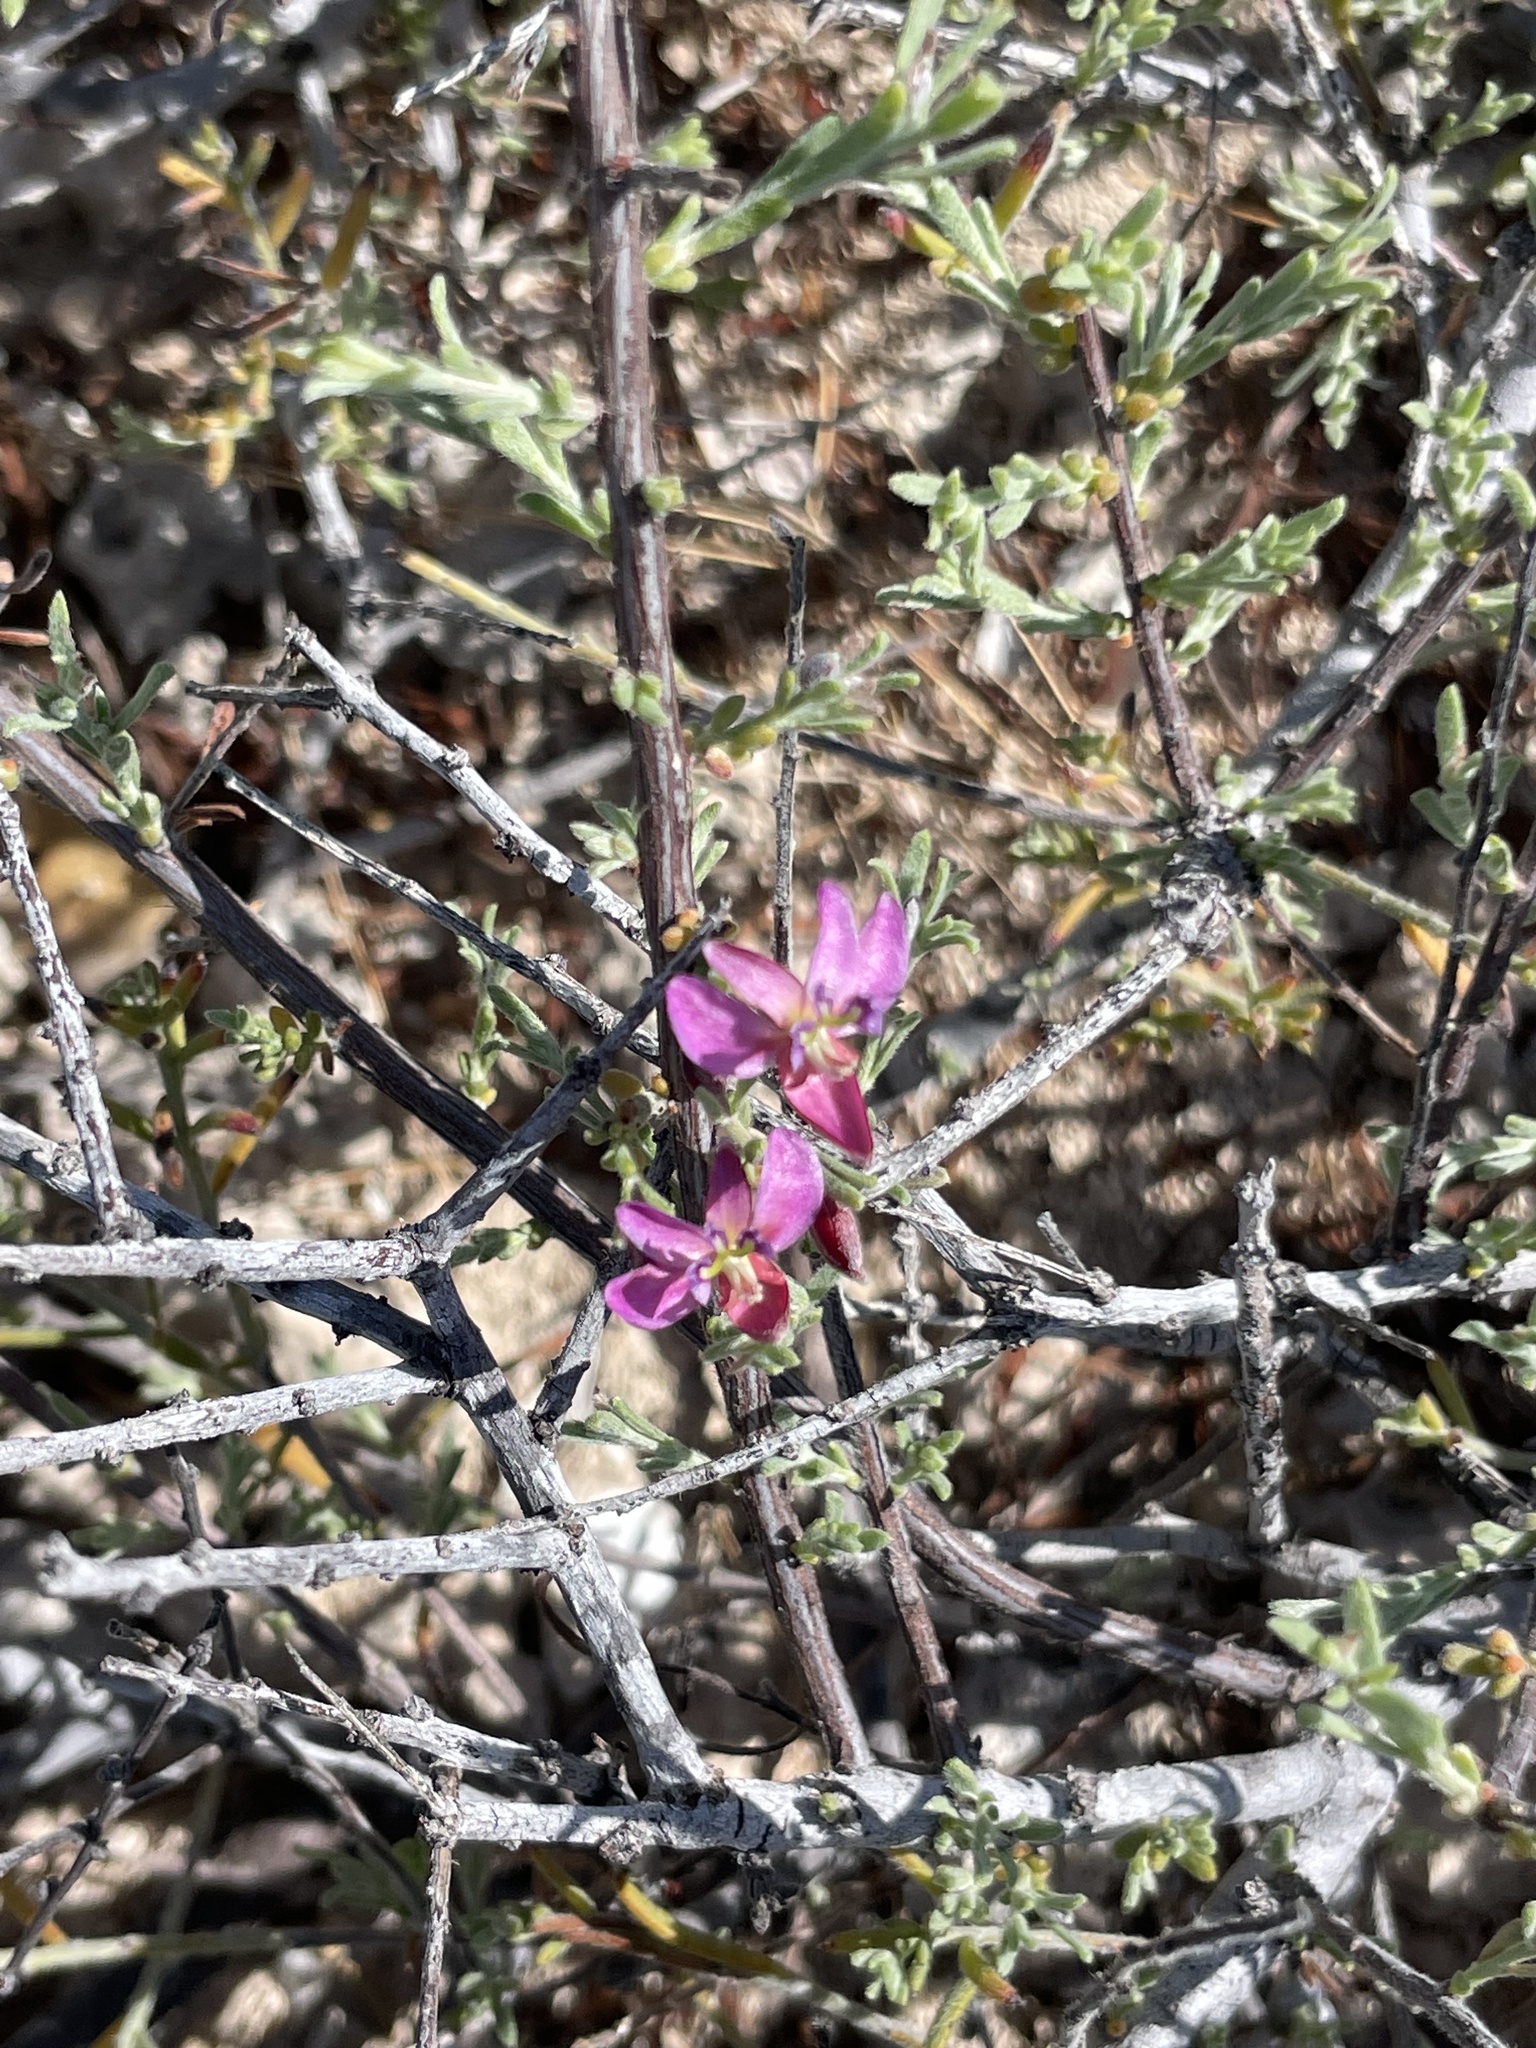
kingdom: Plantae
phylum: Tracheophyta
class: Magnoliopsida
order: Zygophyllales
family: Krameriaceae
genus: Krameria
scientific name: Krameria erecta
